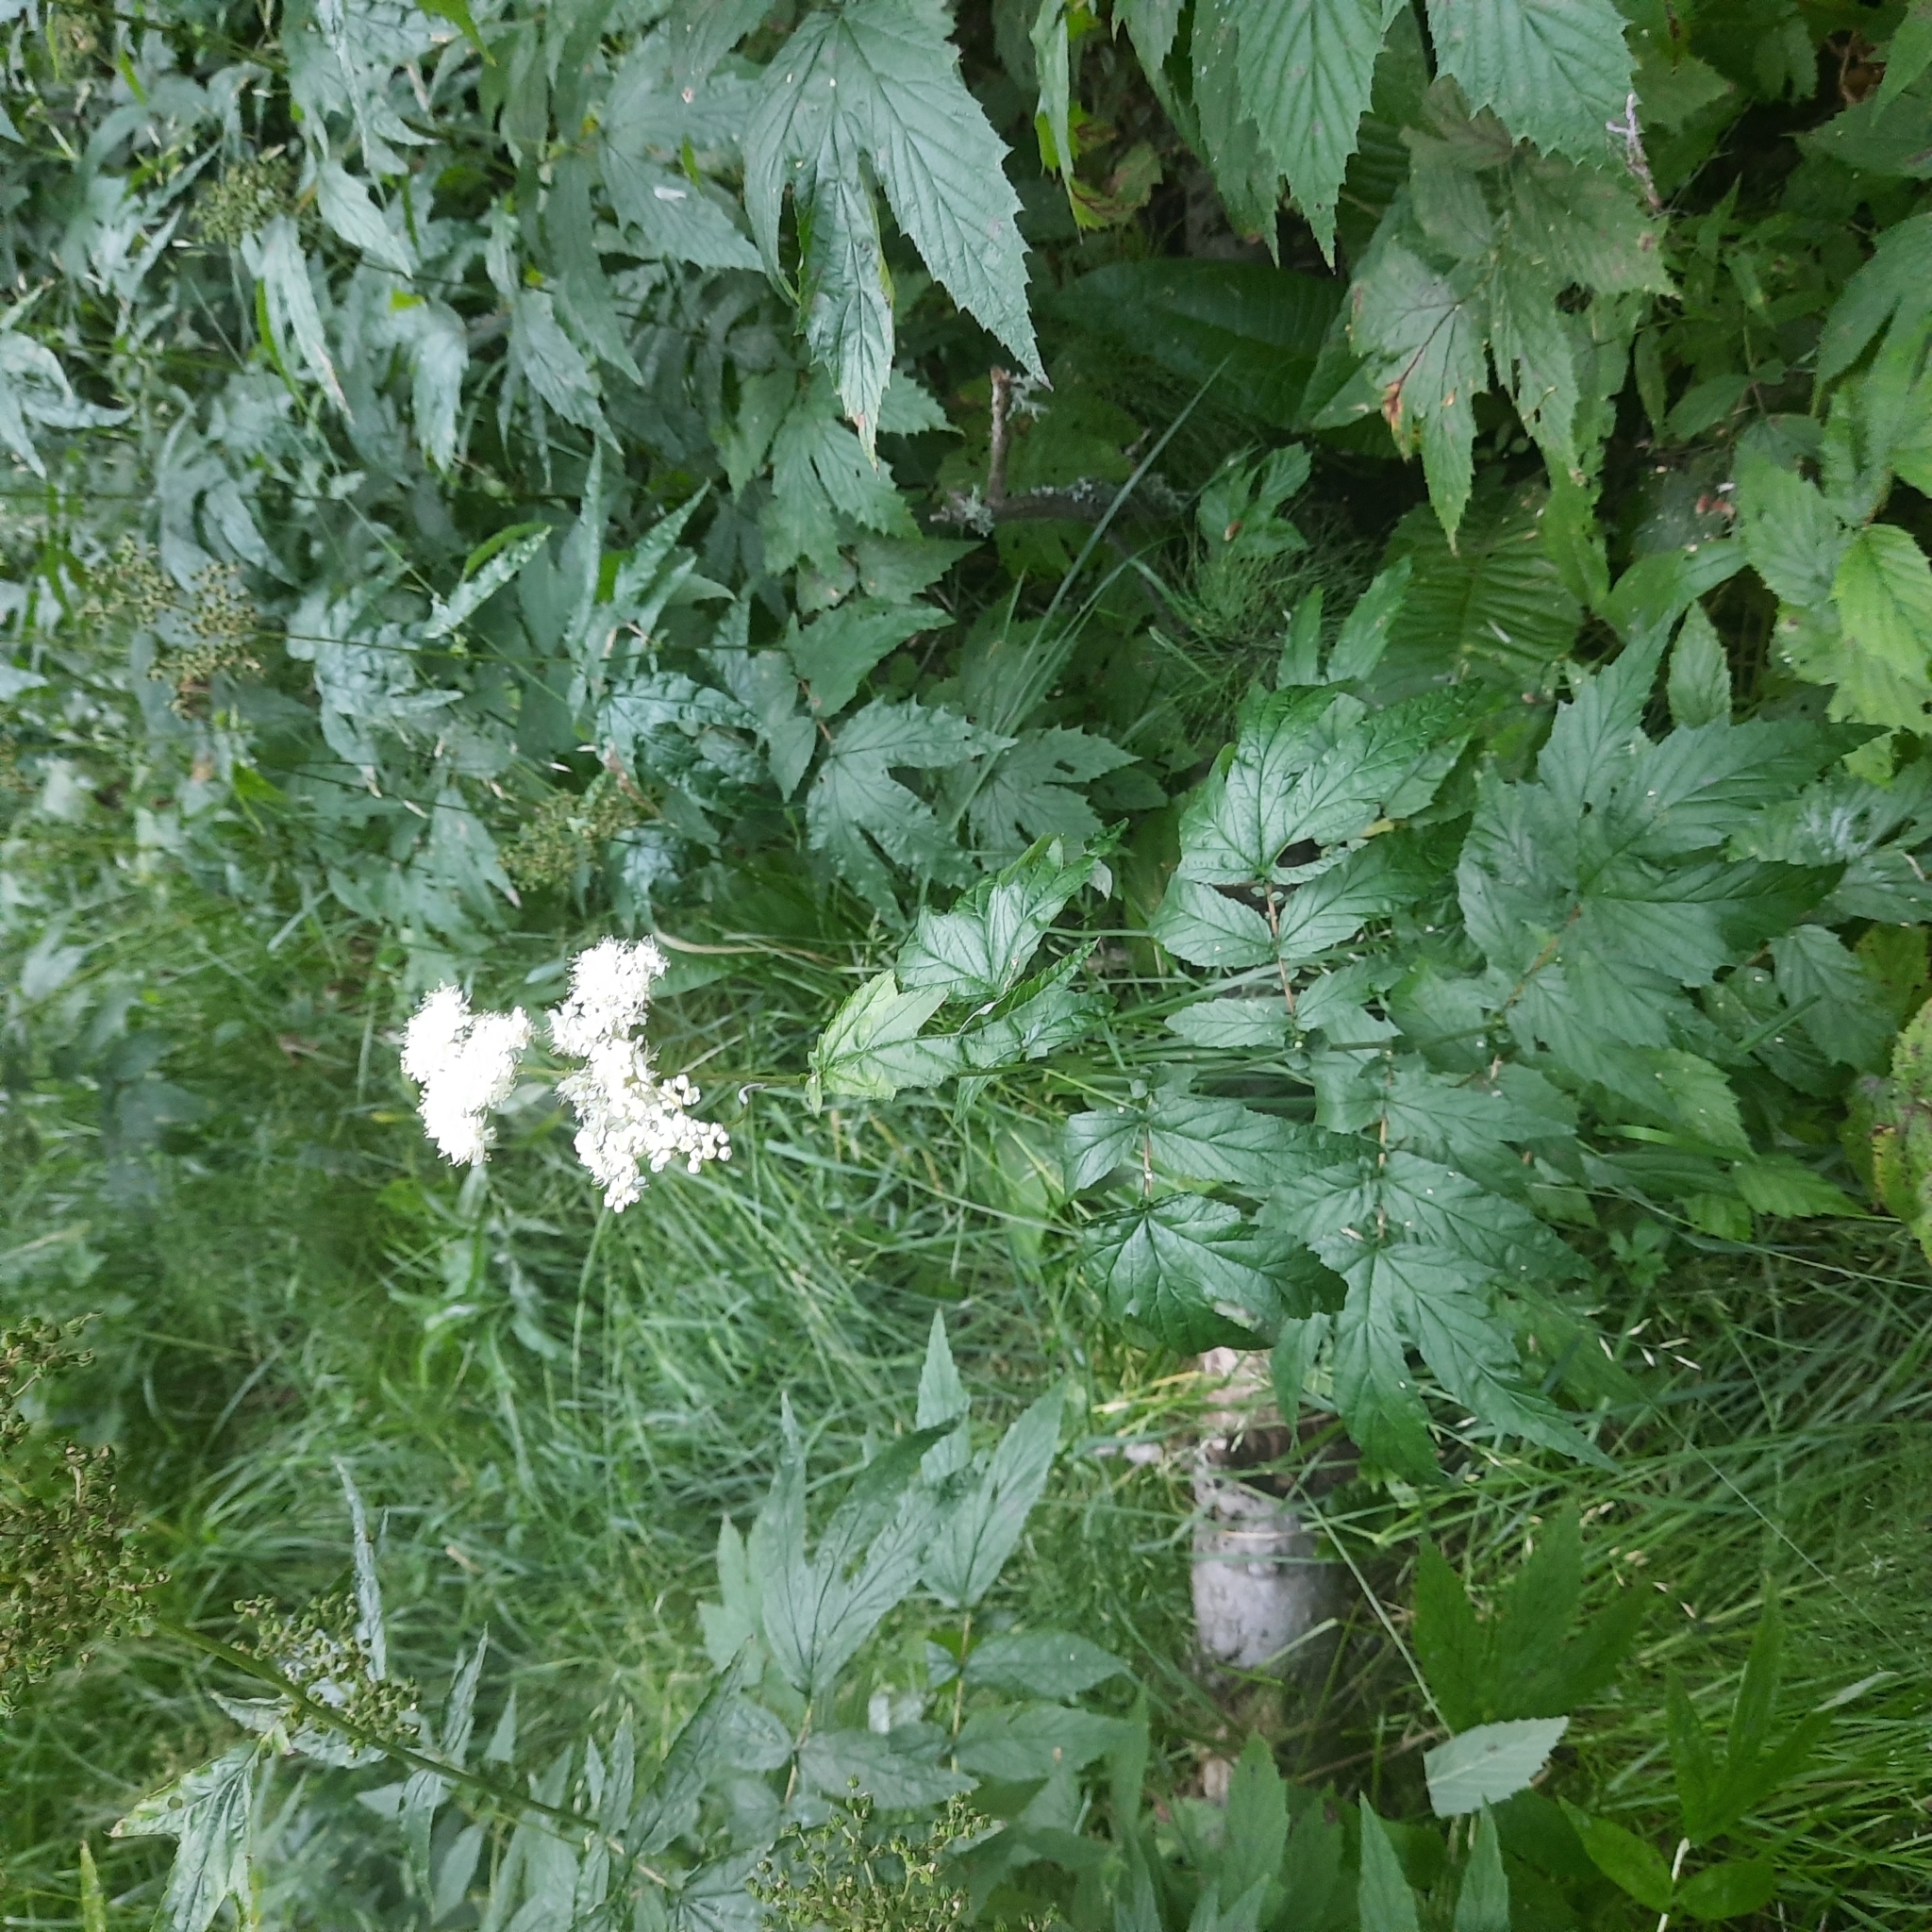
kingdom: Plantae
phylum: Tracheophyta
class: Magnoliopsida
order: Rosales
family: Rosaceae
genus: Filipendula
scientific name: Filipendula ulmaria
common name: Meadowsweet
